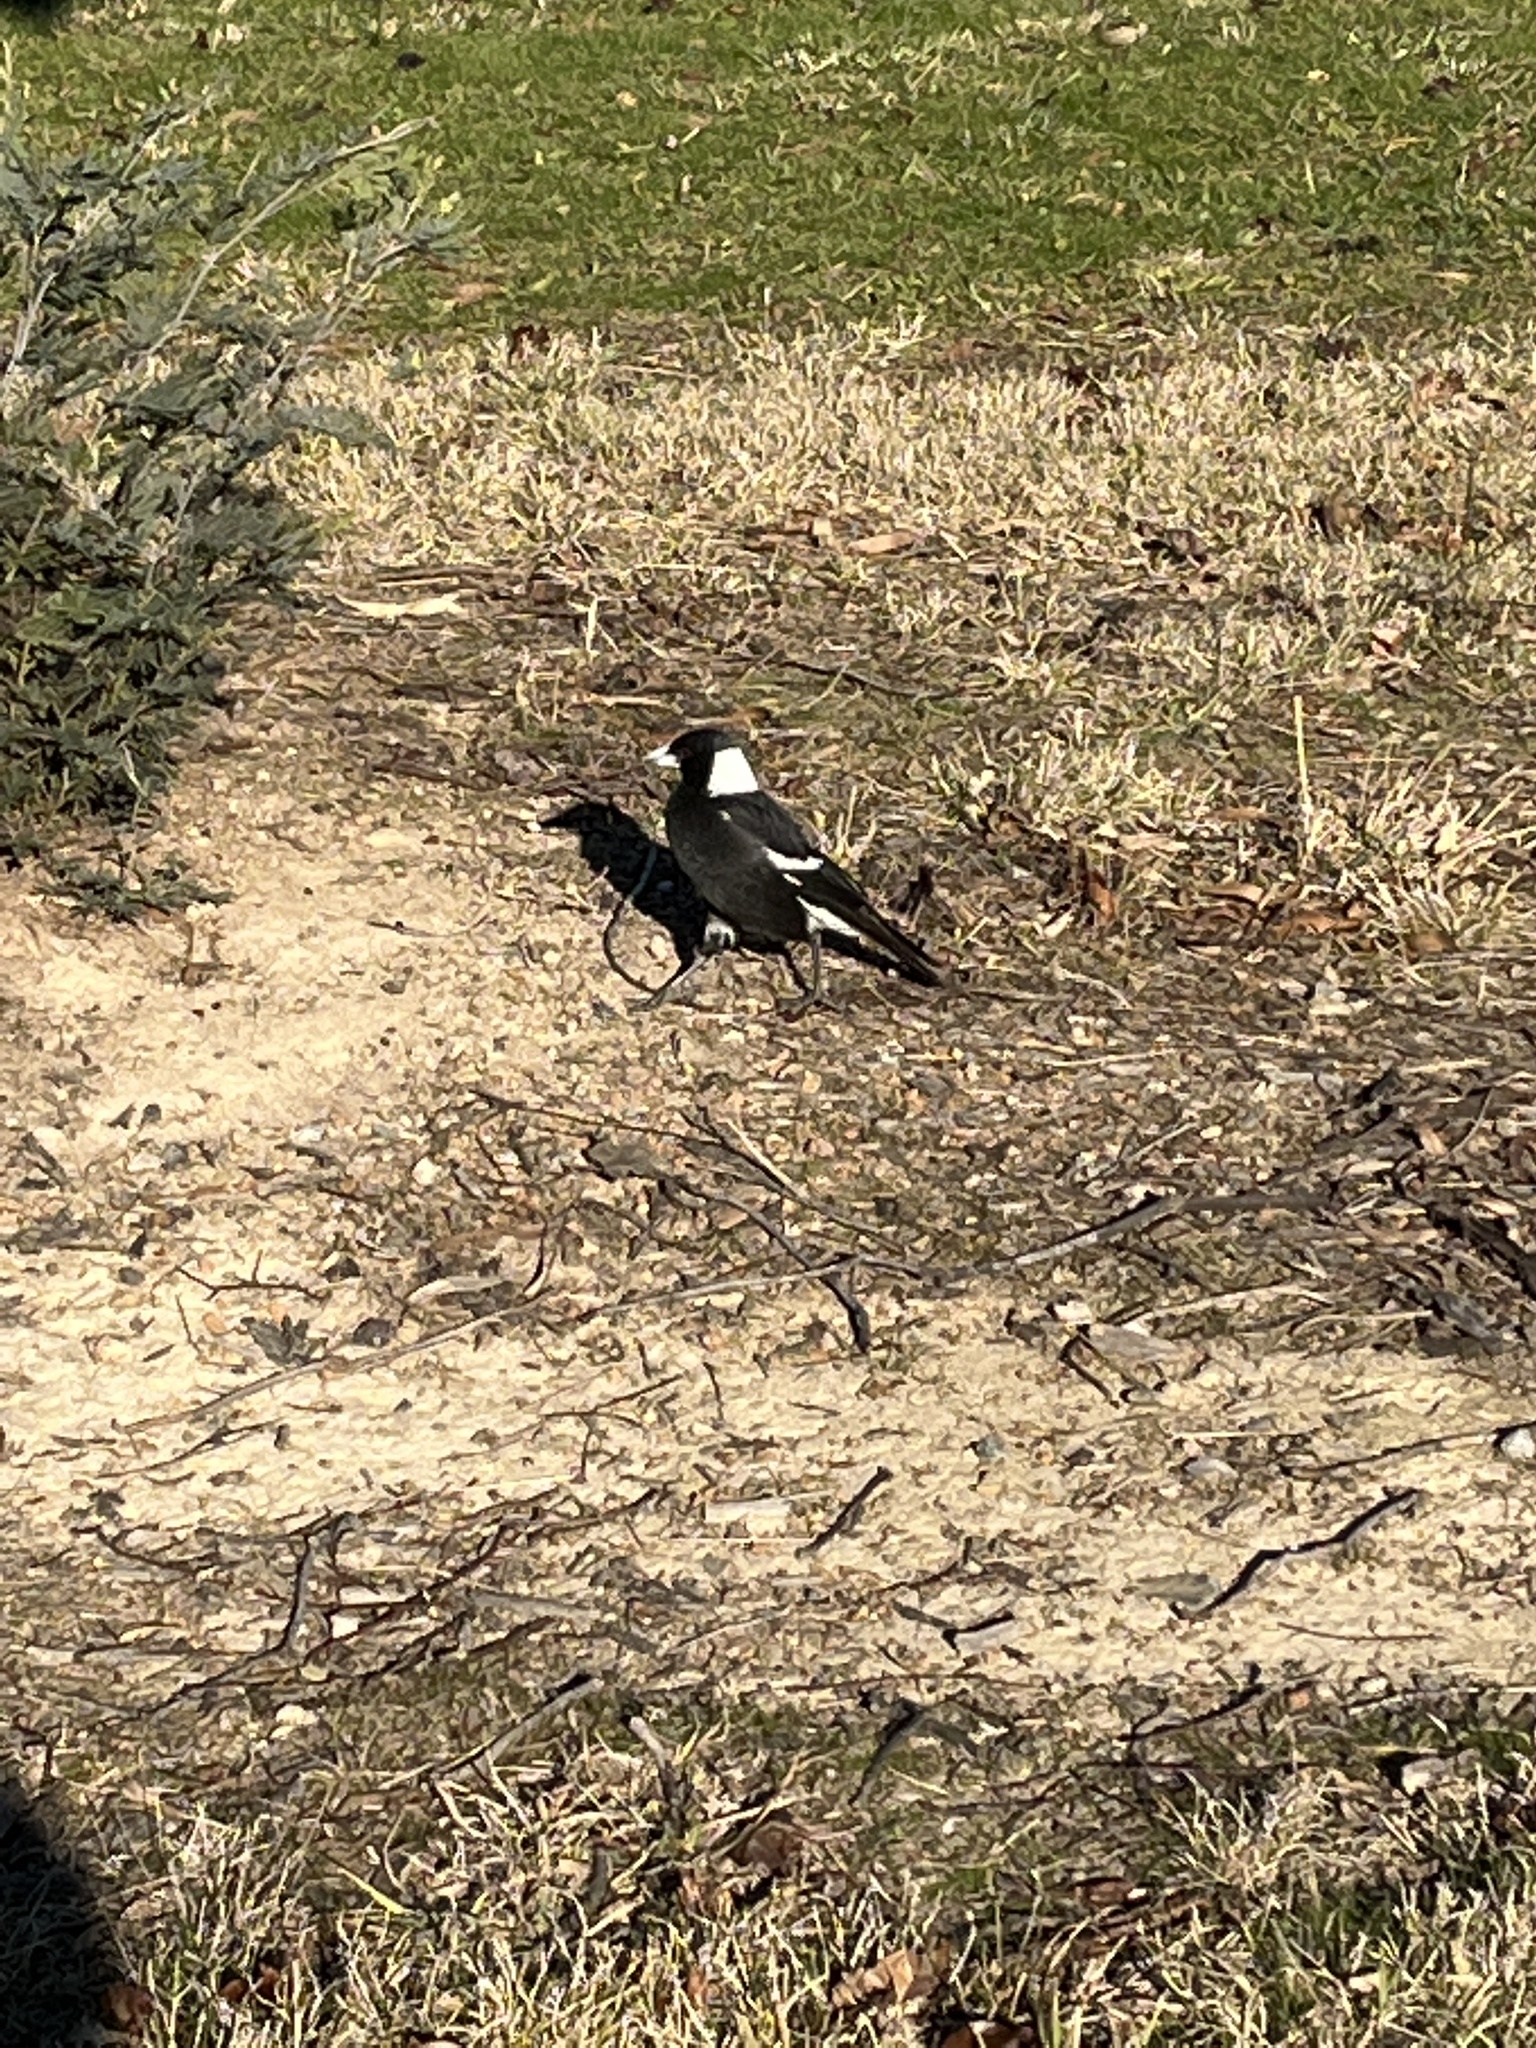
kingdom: Animalia
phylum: Chordata
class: Aves
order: Passeriformes
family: Cracticidae
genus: Gymnorhina
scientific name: Gymnorhina tibicen
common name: Australian magpie
